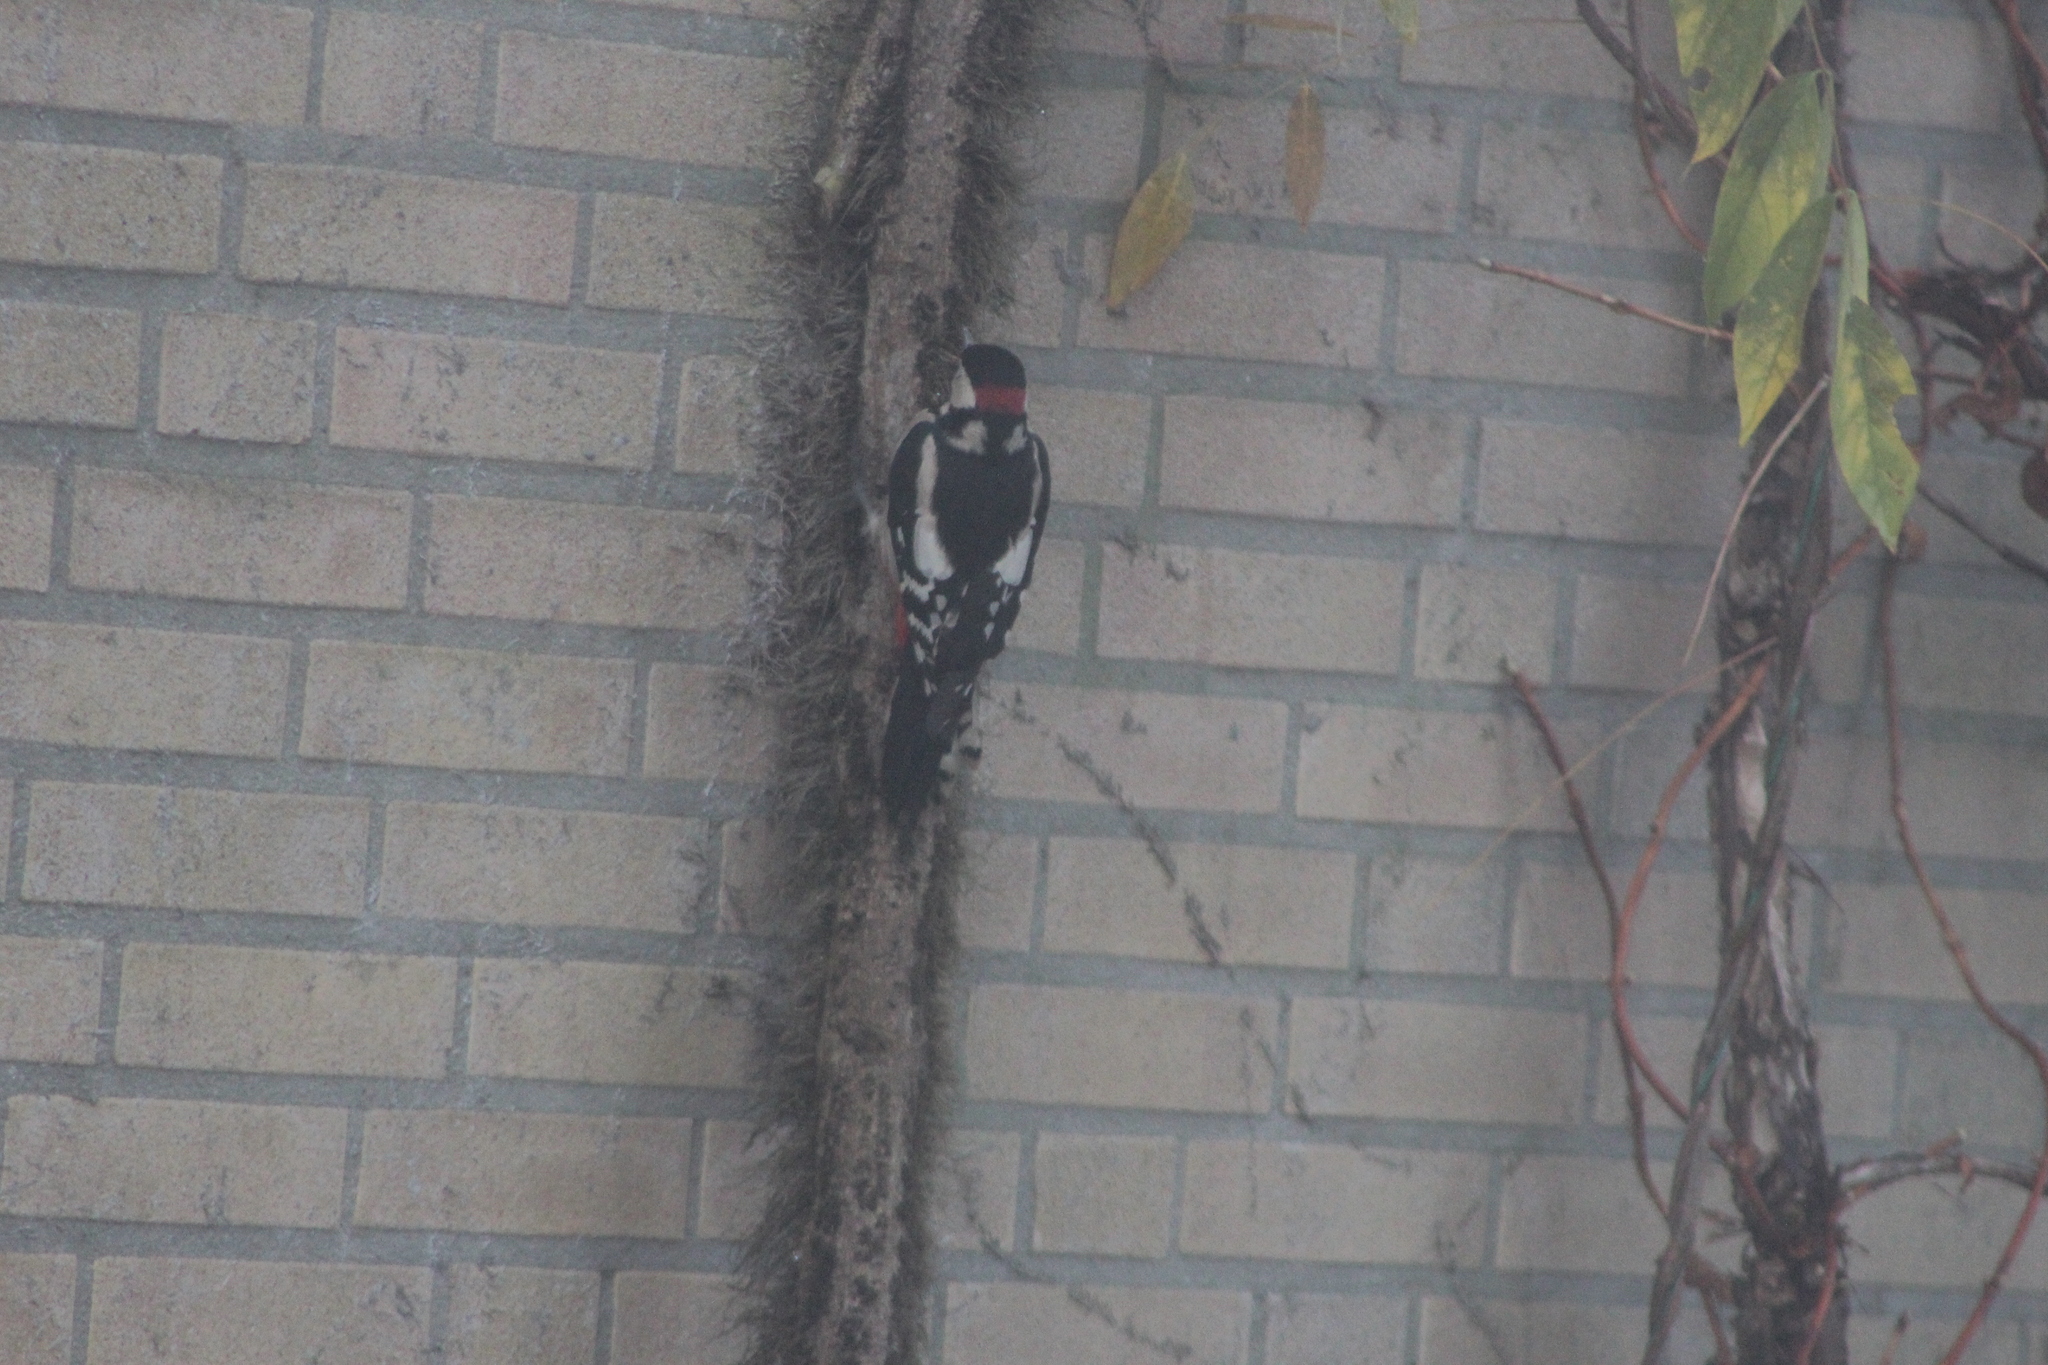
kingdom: Animalia
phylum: Chordata
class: Aves
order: Piciformes
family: Picidae
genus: Dendrocopos
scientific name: Dendrocopos major
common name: Great spotted woodpecker
